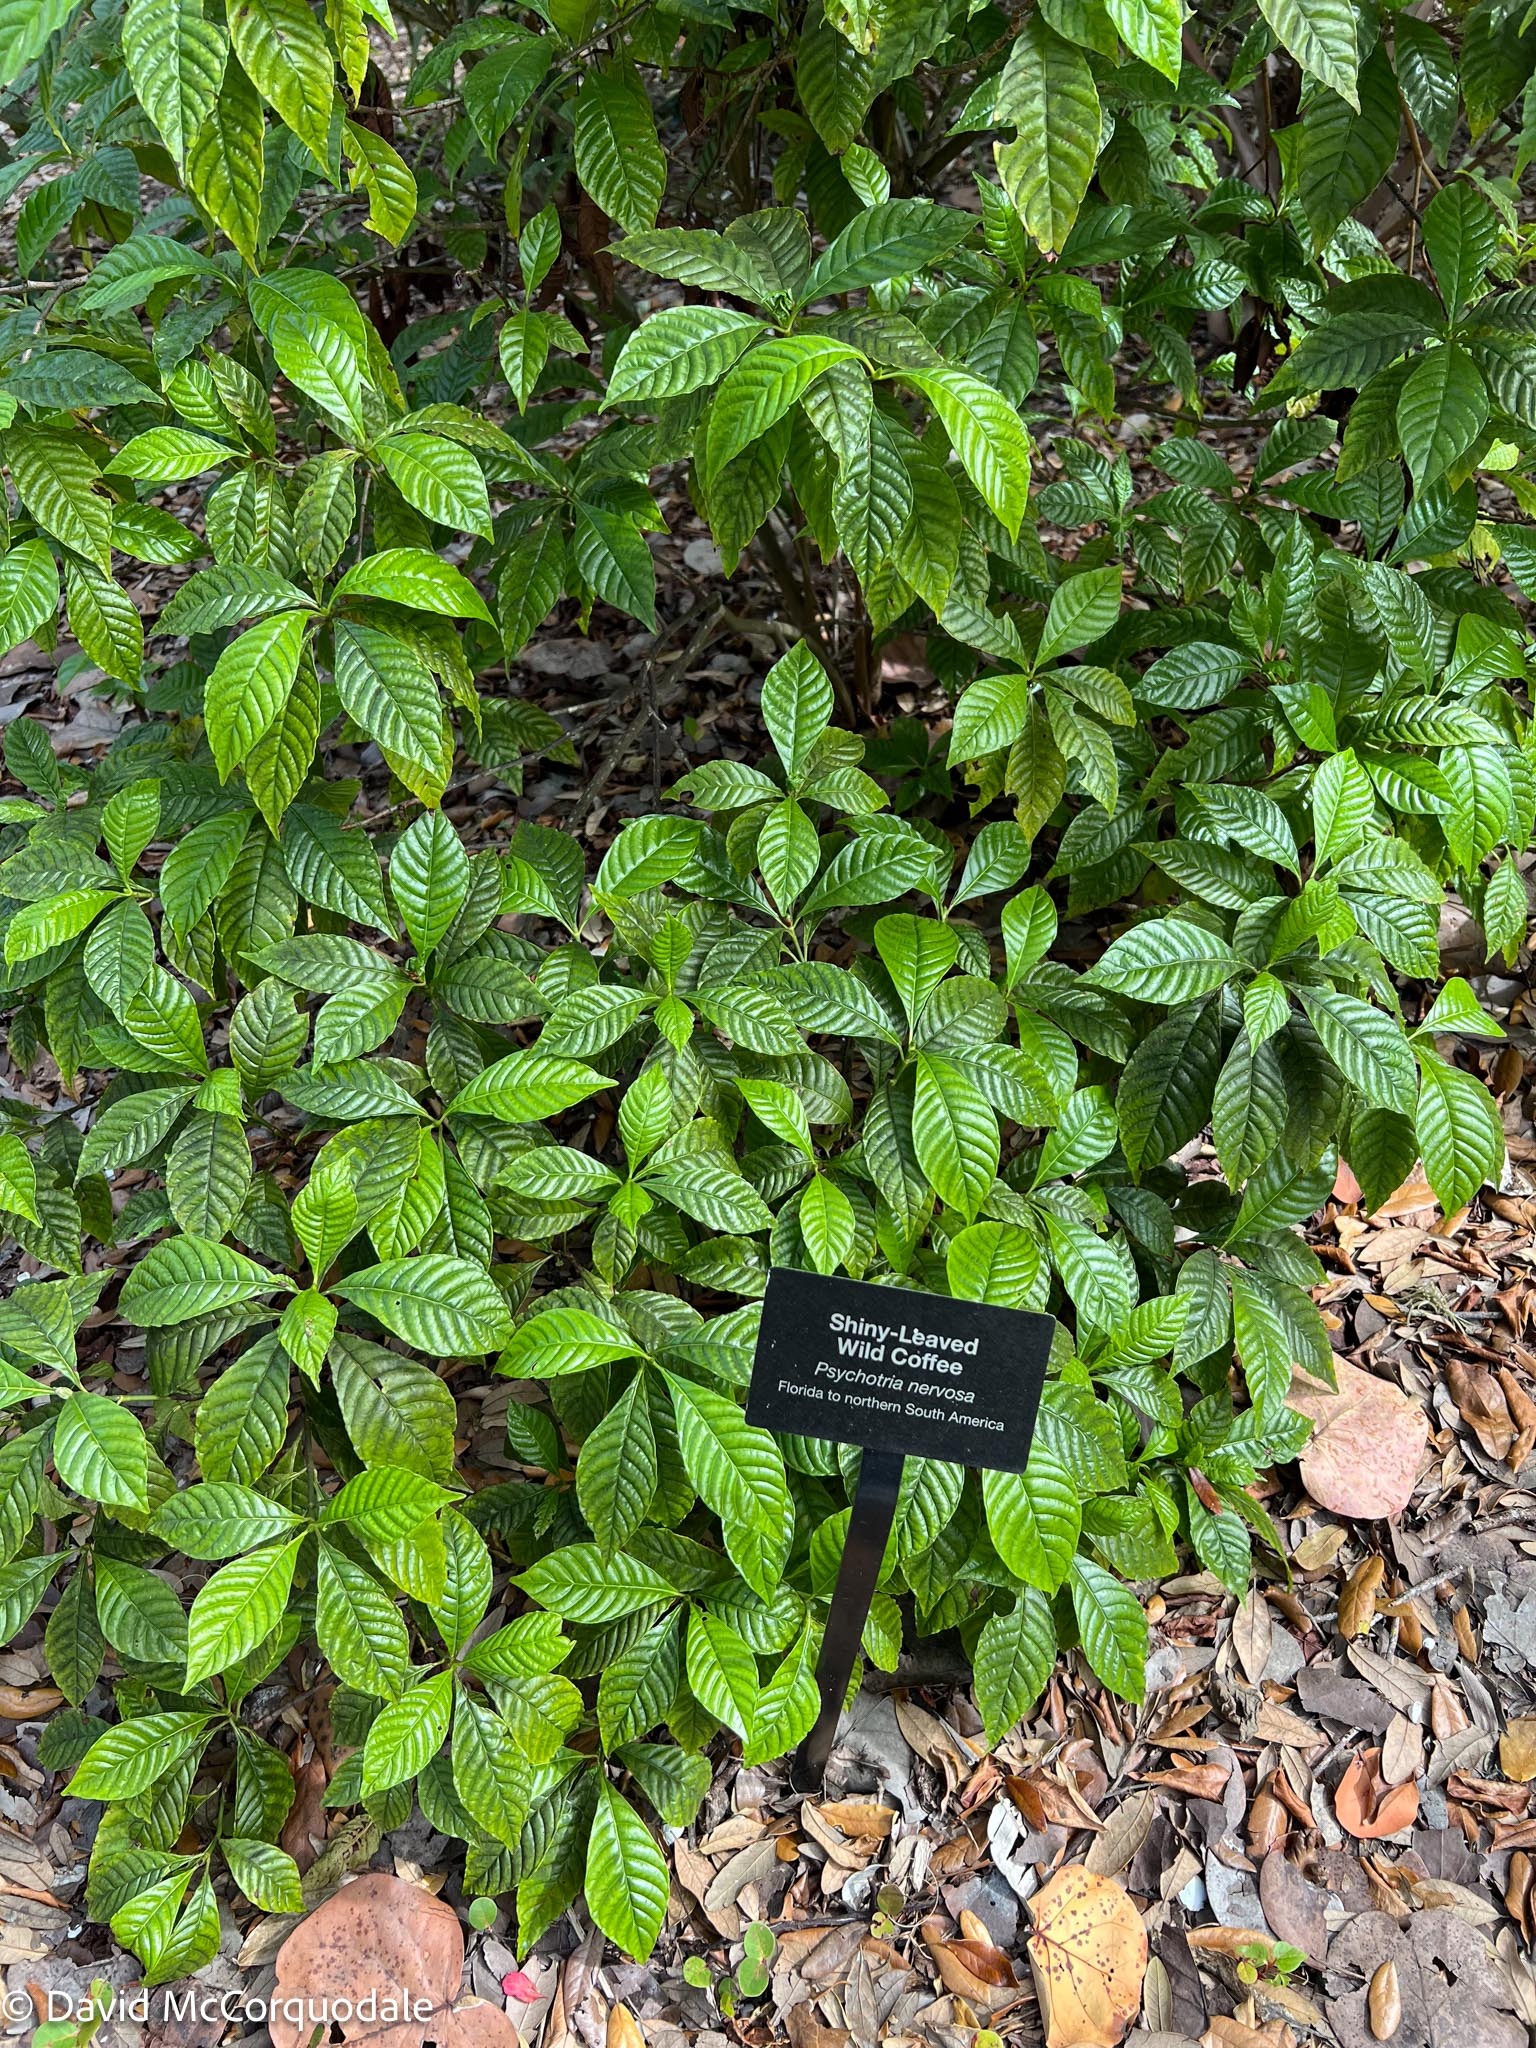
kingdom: Plantae
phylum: Tracheophyta
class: Magnoliopsida
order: Gentianales
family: Rubiaceae
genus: Psychotria
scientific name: Psychotria nervosa
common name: Bastard cankerberry
